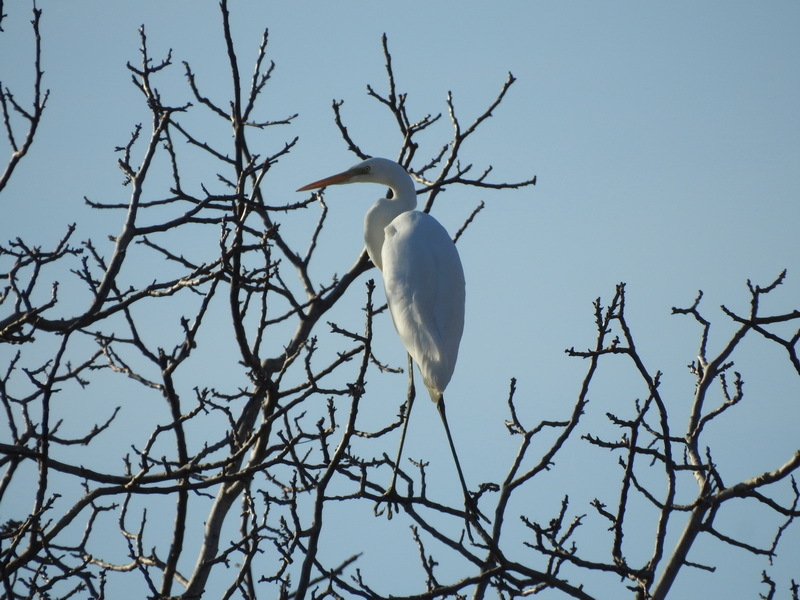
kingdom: Animalia
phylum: Chordata
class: Aves
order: Pelecaniformes
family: Ardeidae
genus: Ardea
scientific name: Ardea alba
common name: Great egret
